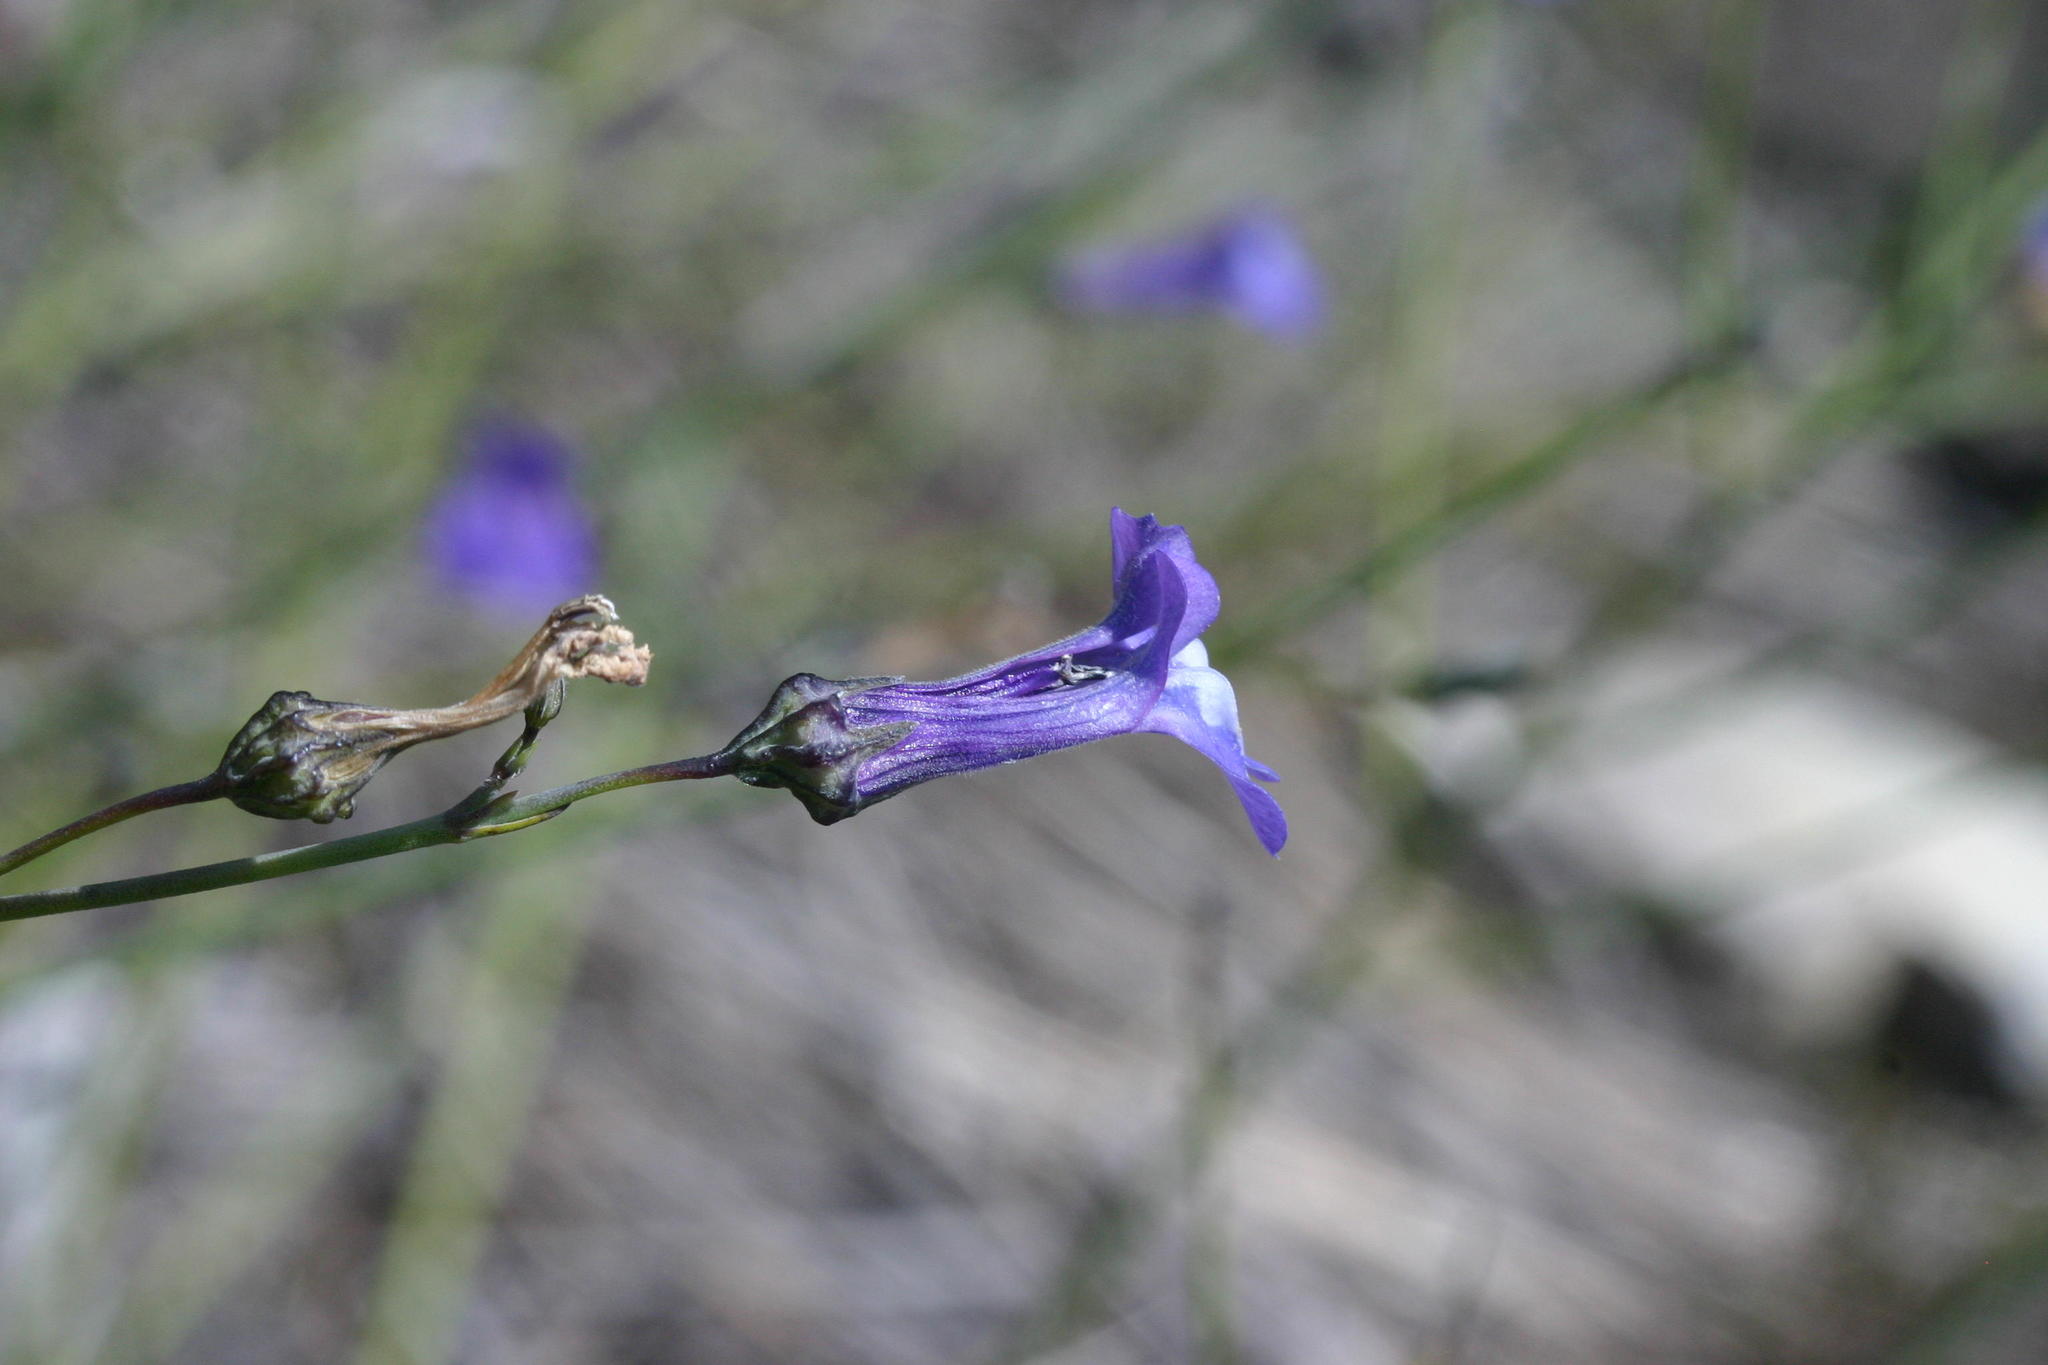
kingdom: Plantae
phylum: Tracheophyta
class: Magnoliopsida
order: Asterales
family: Campanulaceae
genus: Lobelia
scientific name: Lobelia linearis
